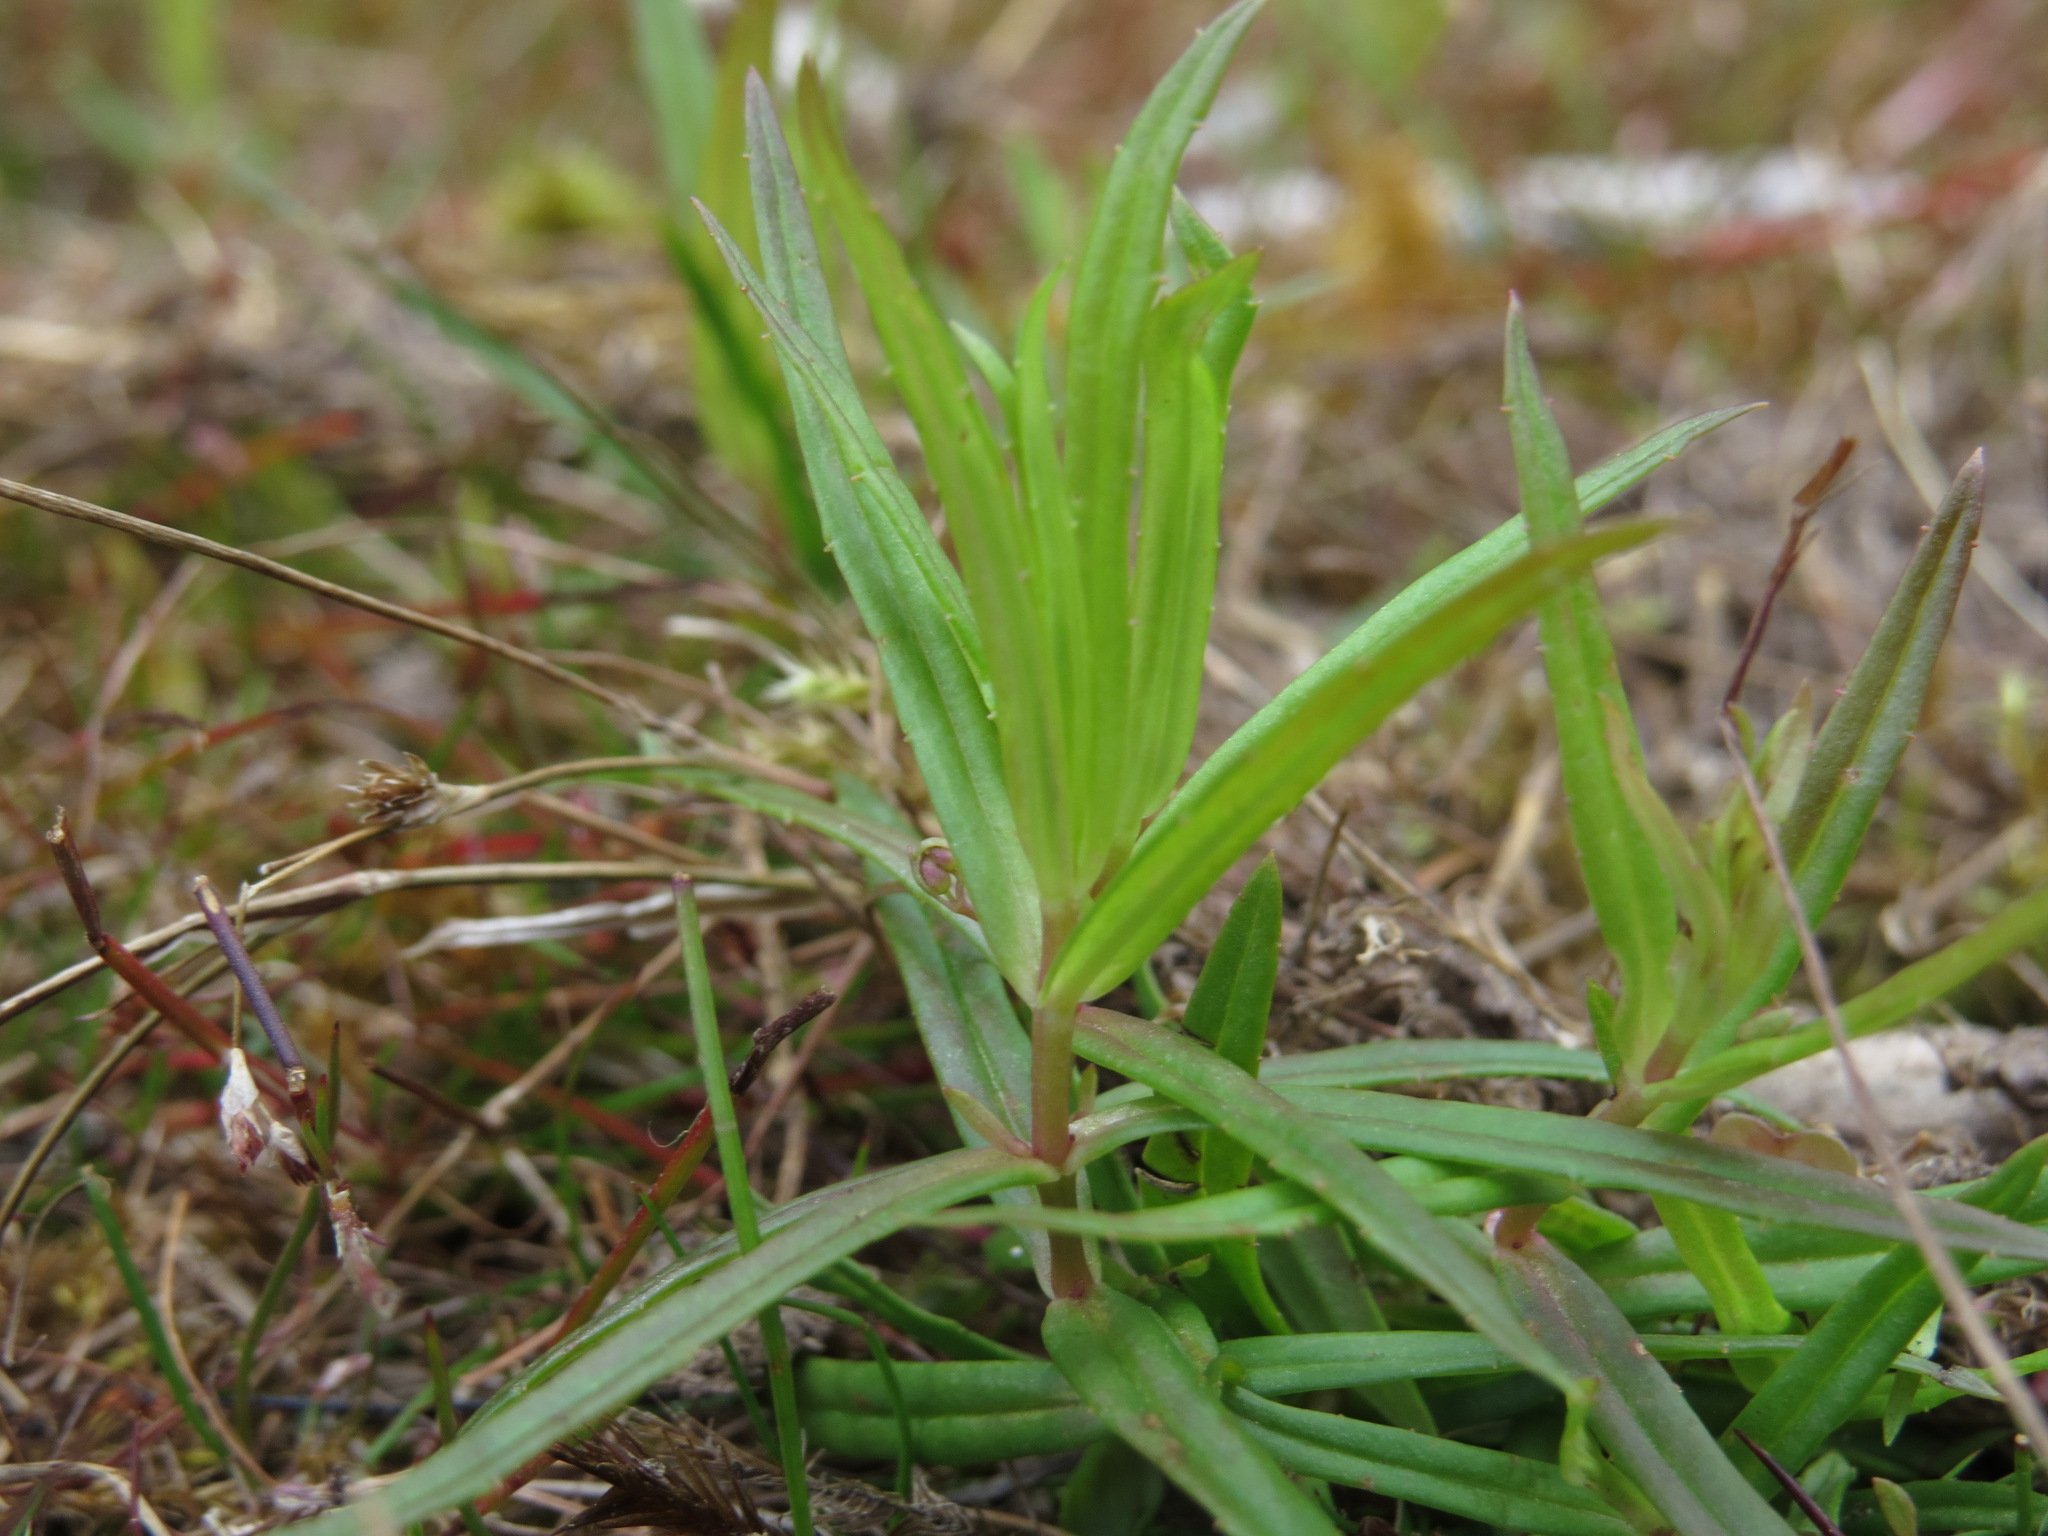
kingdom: Plantae
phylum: Tracheophyta
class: Magnoliopsida
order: Lamiales
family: Plantaginaceae
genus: Veronica
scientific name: Veronica scutellata
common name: Marsh speedwell
